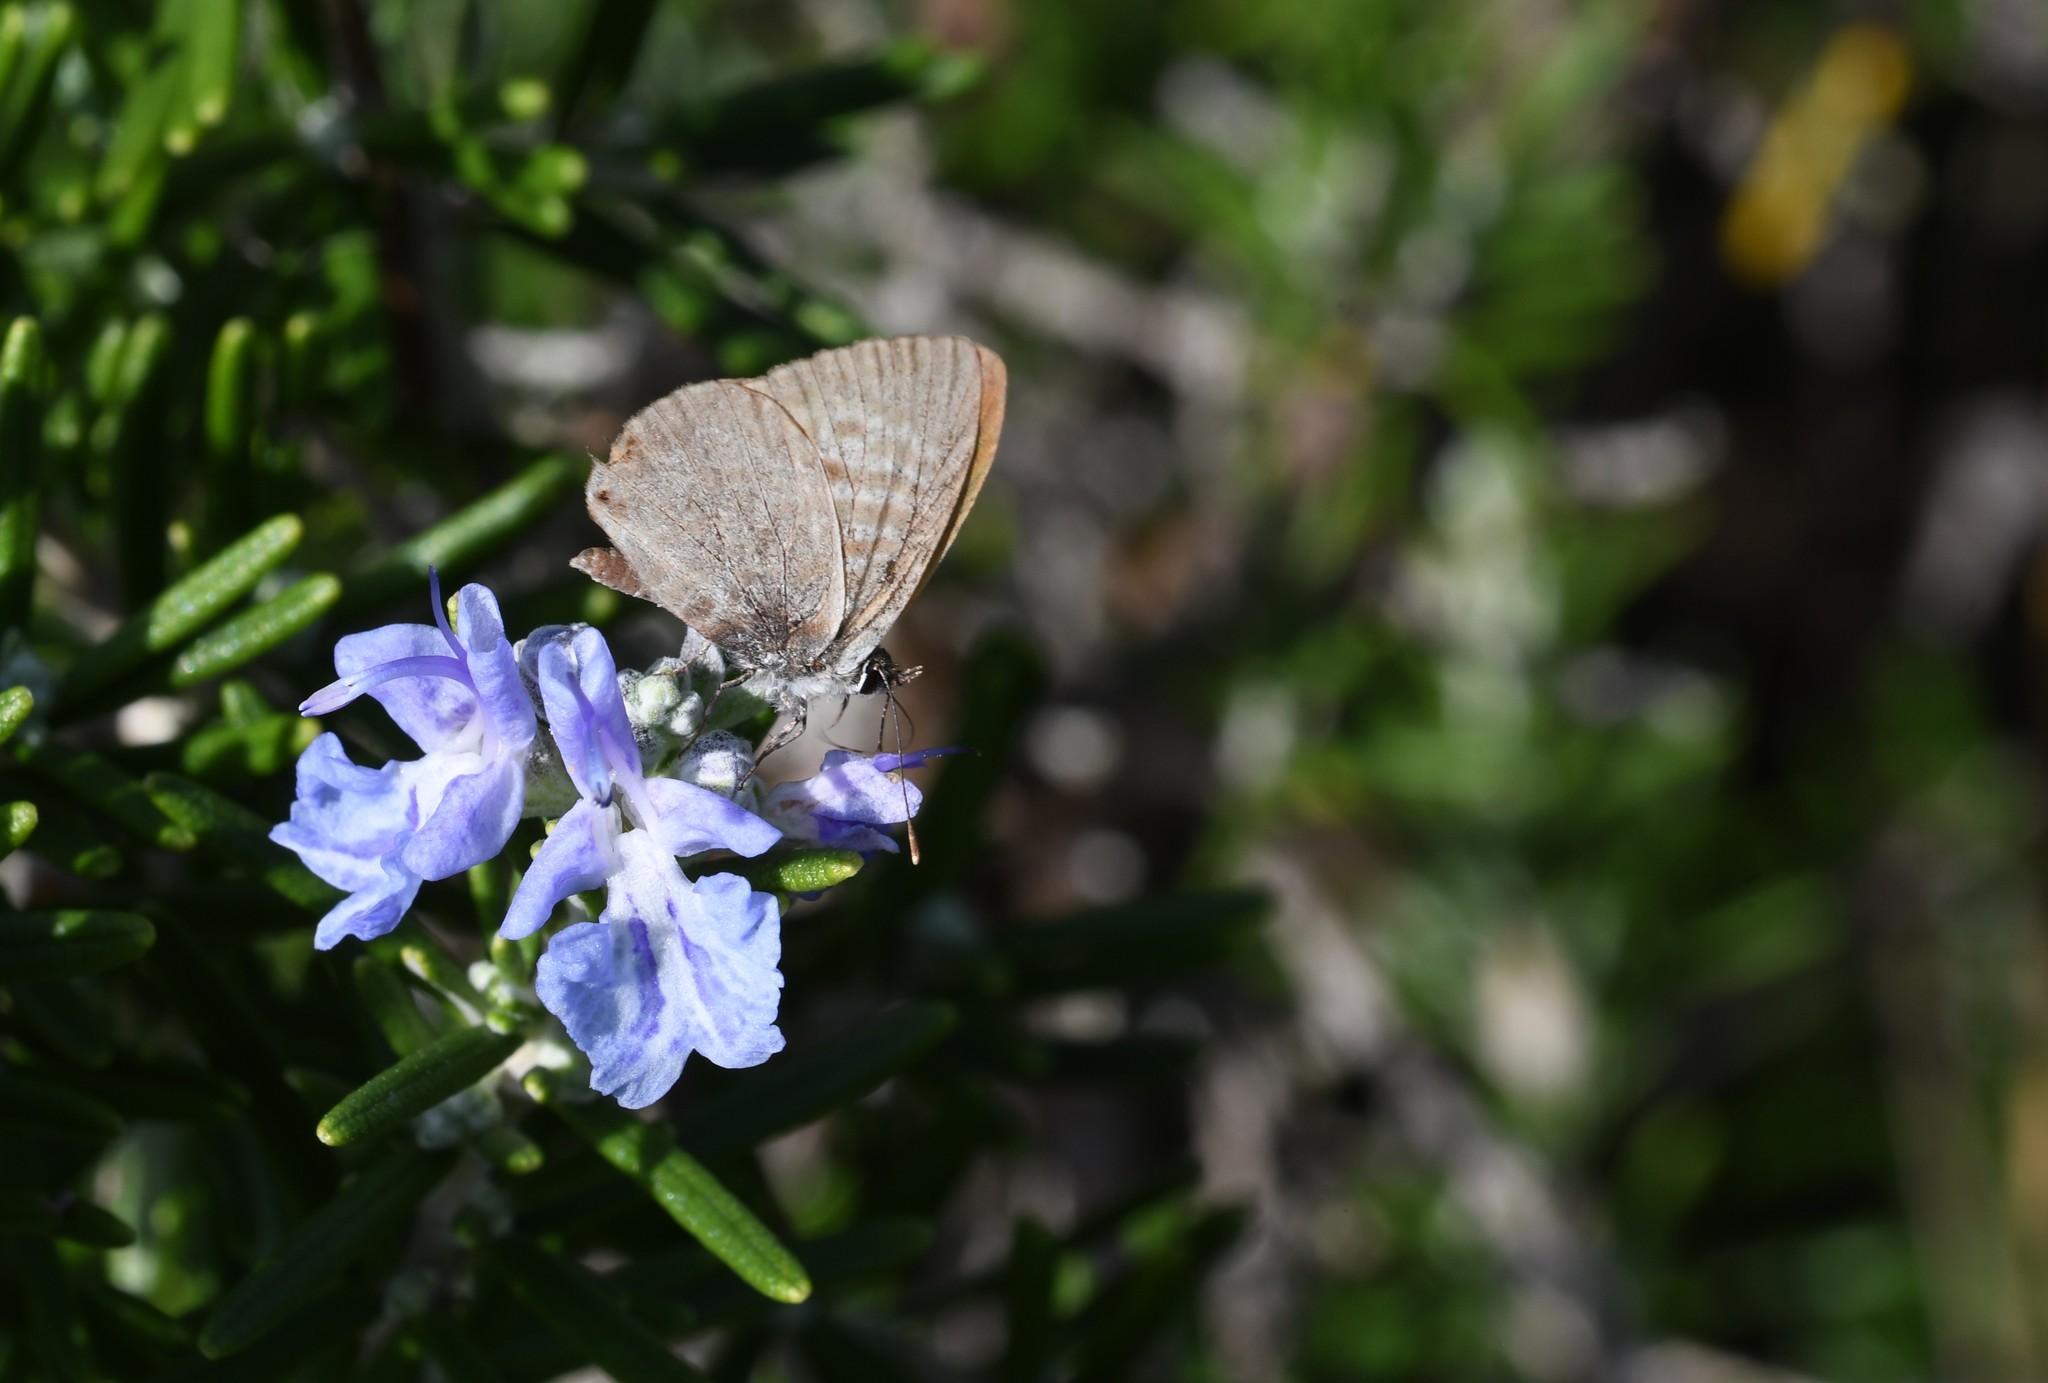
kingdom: Animalia
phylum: Arthropoda
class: Insecta
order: Lepidoptera
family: Lycaenidae
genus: Leptotes
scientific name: Leptotes pirithous
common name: Lang's short-tailed blue
